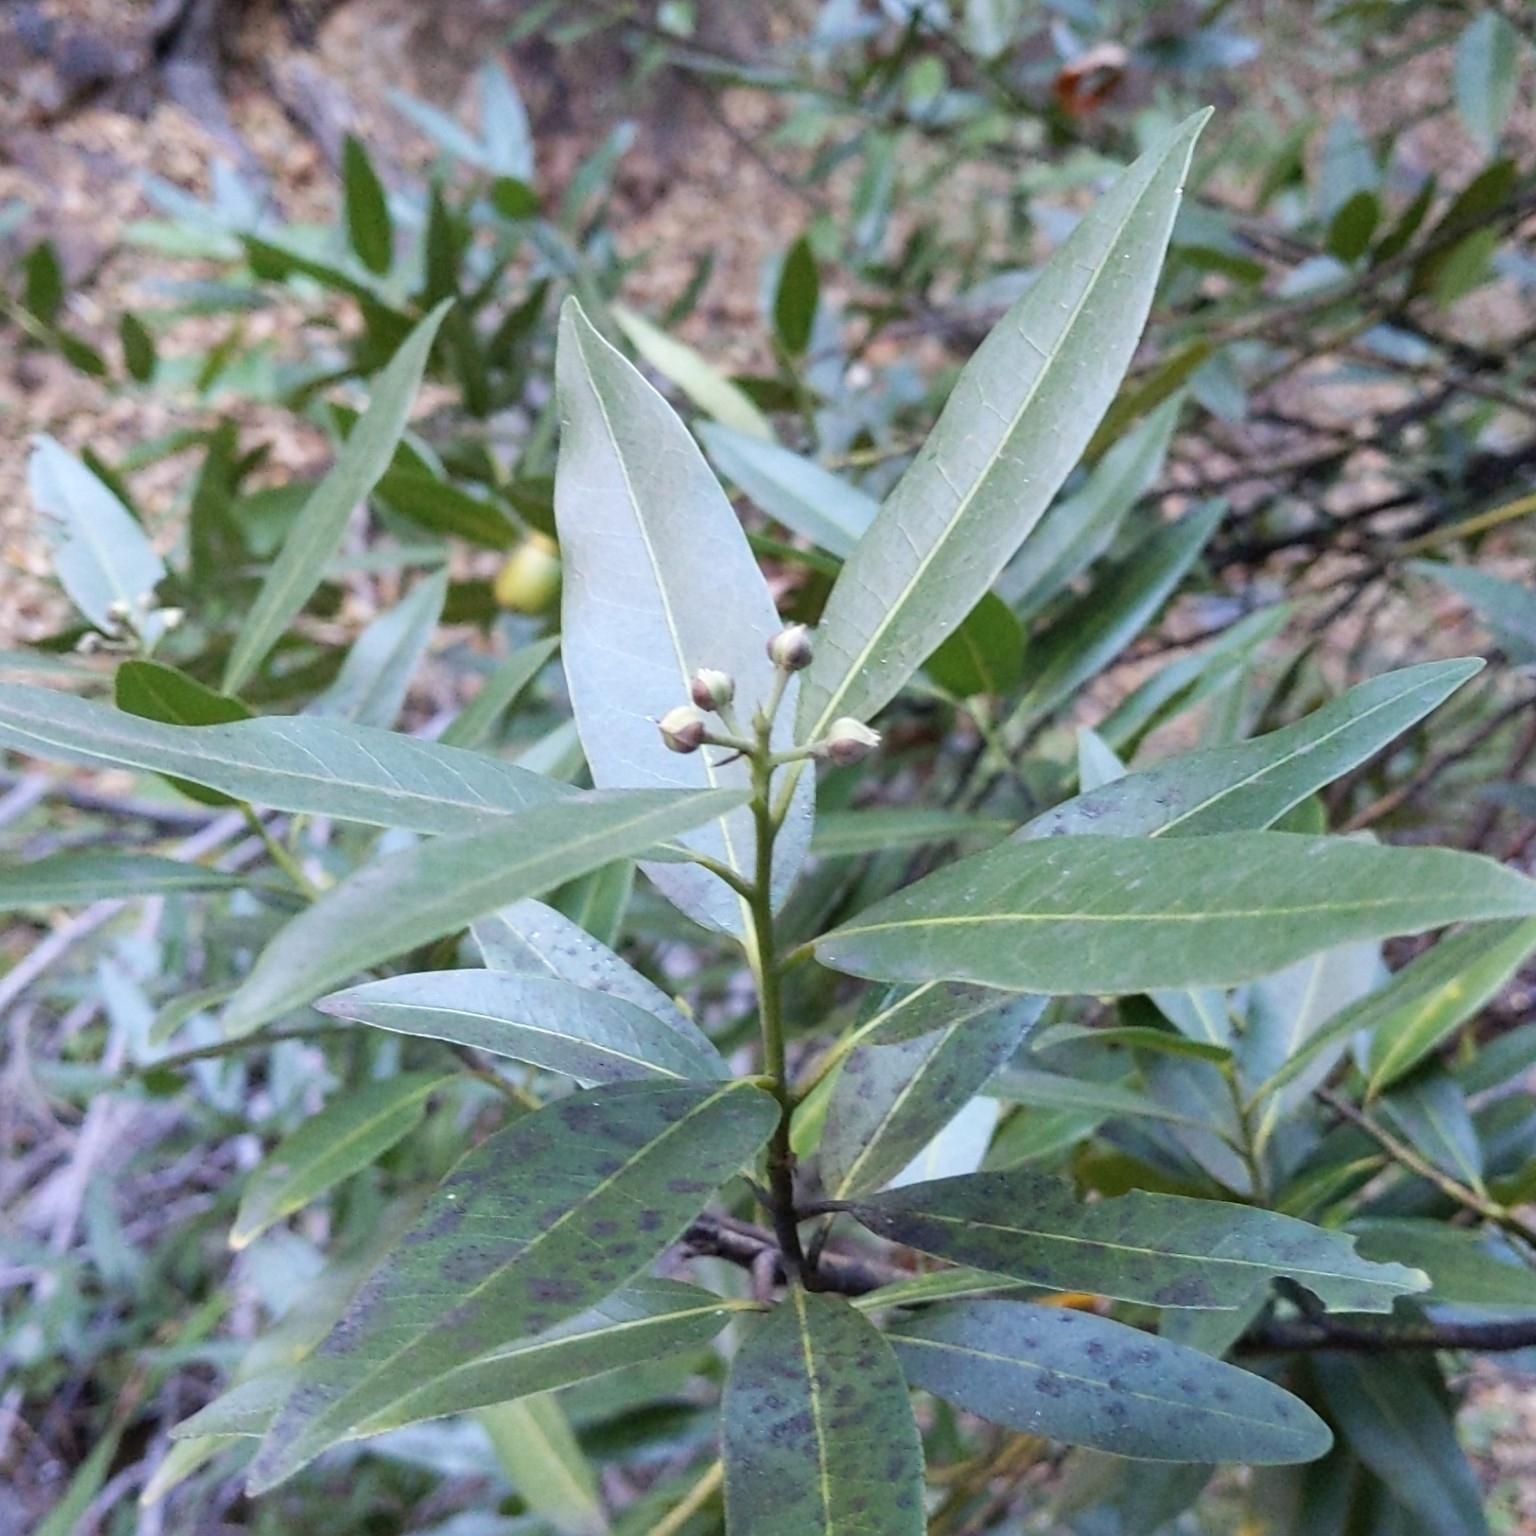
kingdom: Plantae
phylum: Tracheophyta
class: Magnoliopsida
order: Laurales
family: Lauraceae
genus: Umbellularia
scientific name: Umbellularia californica
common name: California bay
